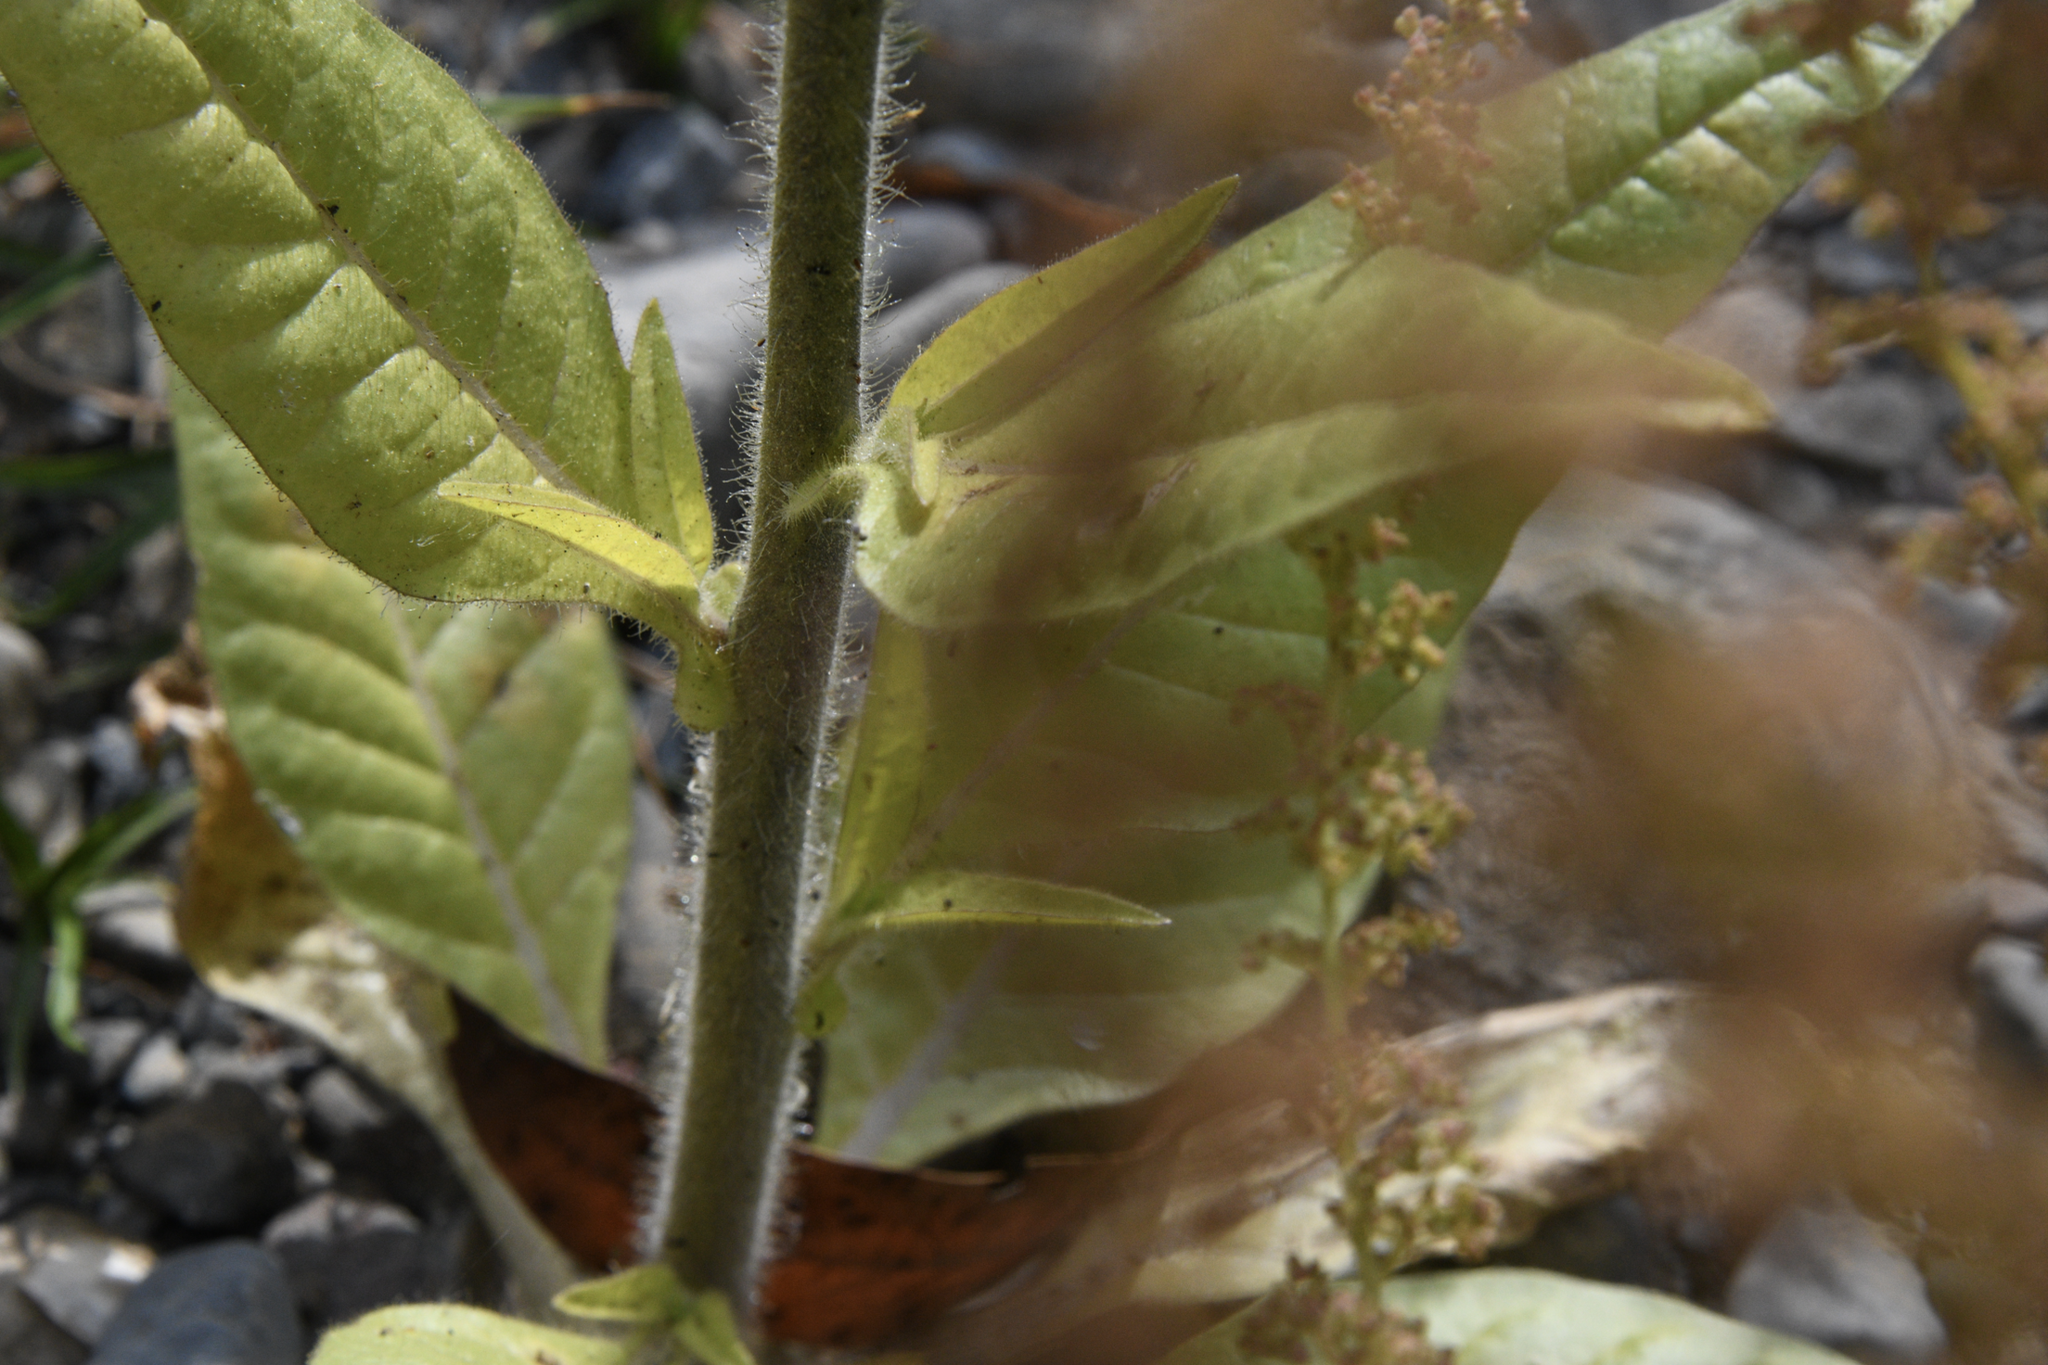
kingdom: Plantae
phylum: Tracheophyta
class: Magnoliopsida
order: Solanales
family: Solanaceae
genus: Nicotiana
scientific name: Nicotiana quadrivalvis
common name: Indian tobacco
